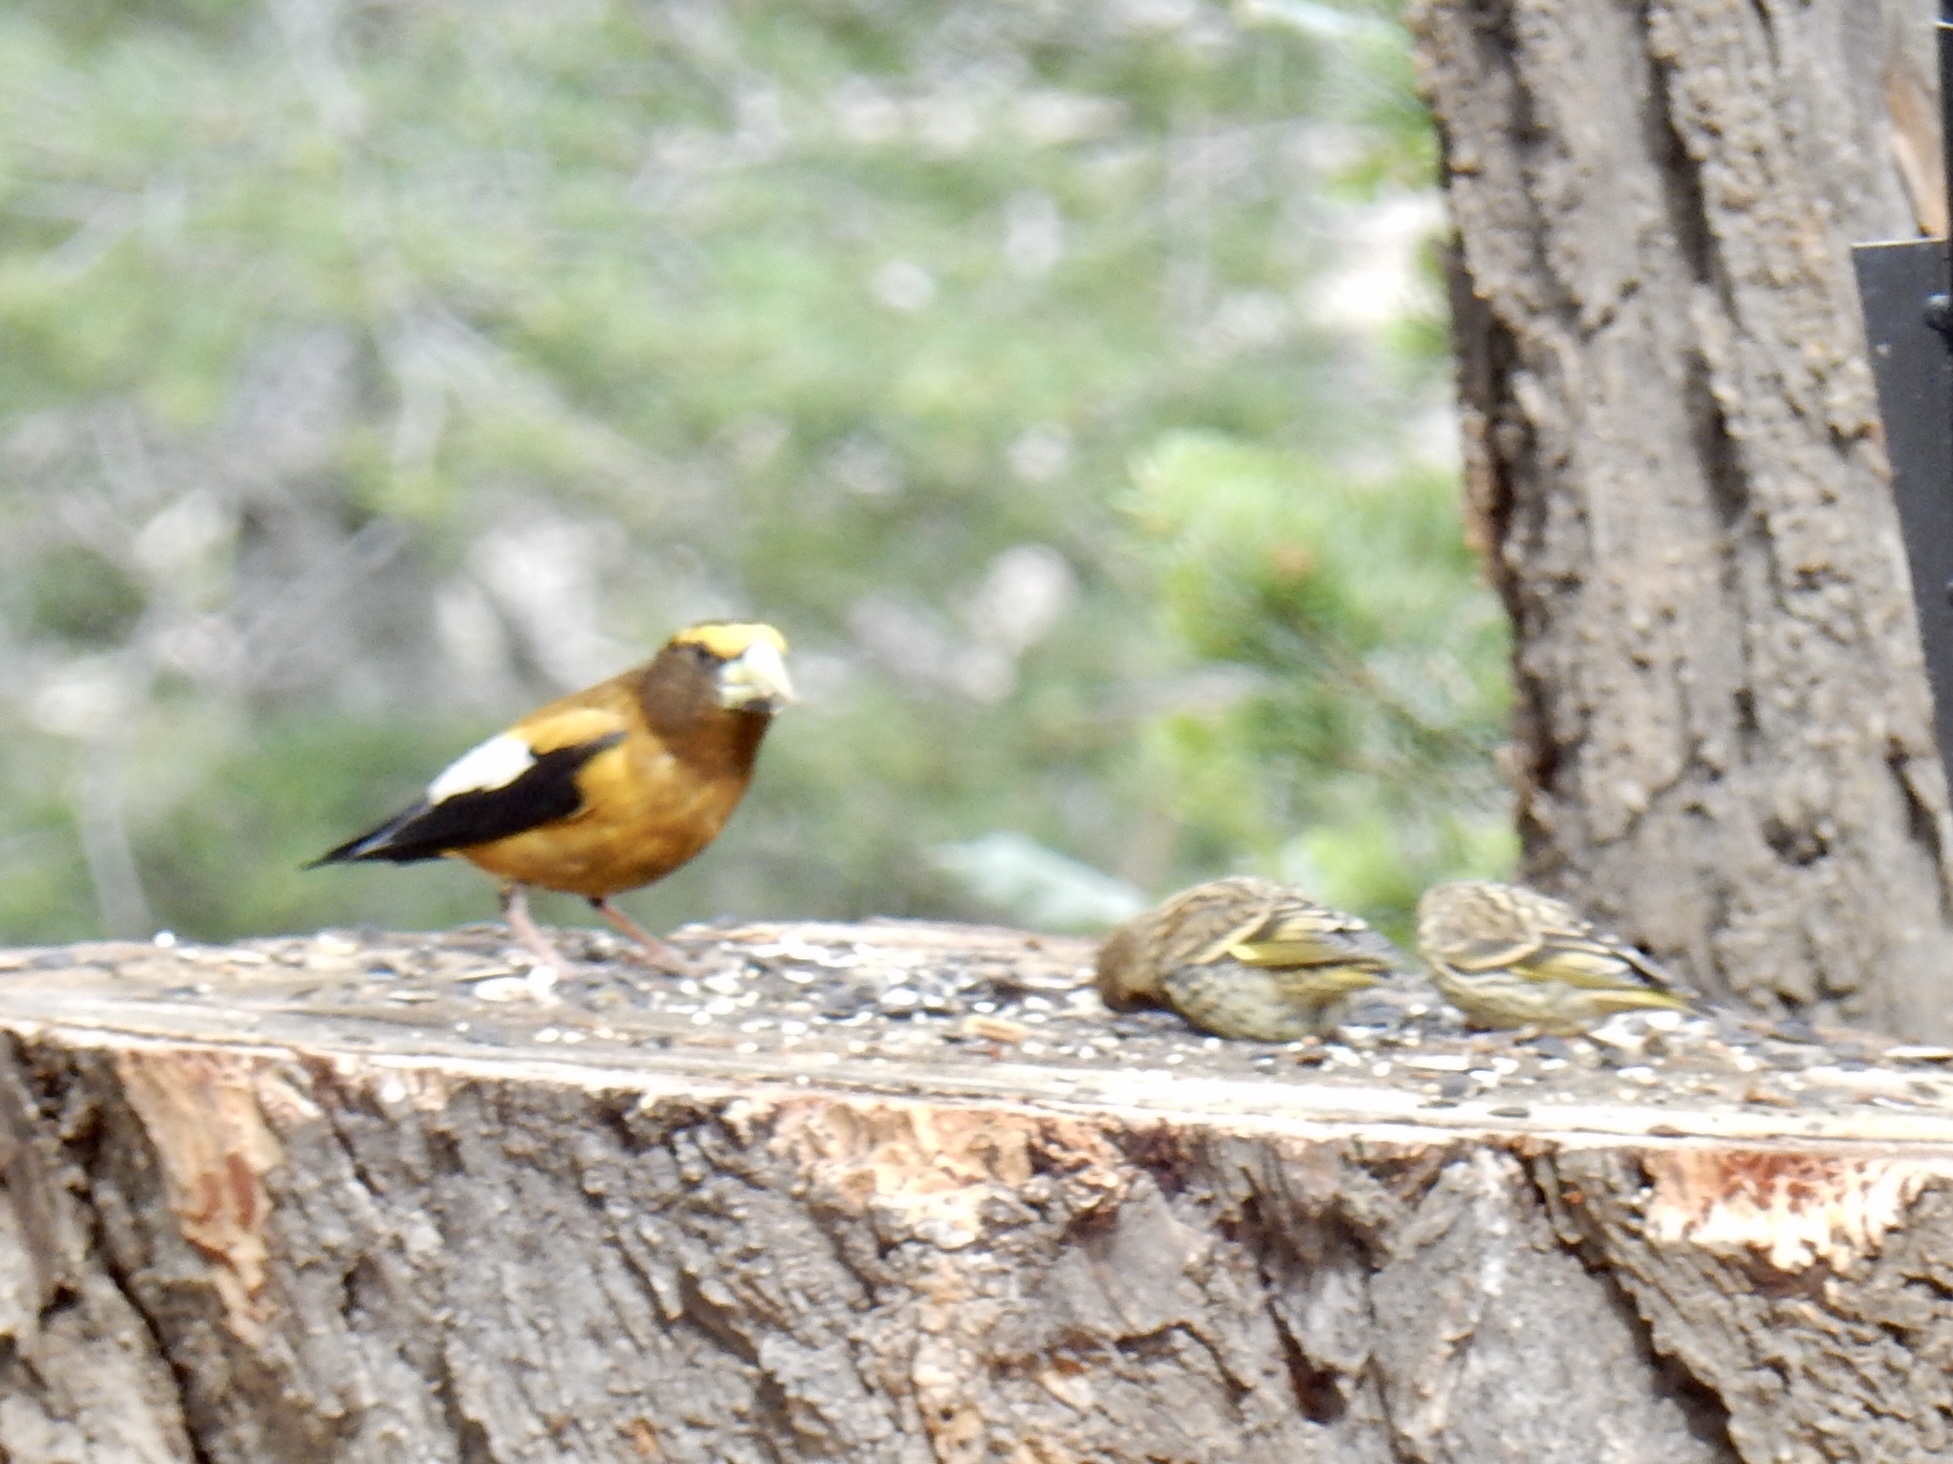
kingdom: Animalia
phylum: Chordata
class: Aves
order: Passeriformes
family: Fringillidae
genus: Spinus
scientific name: Spinus pinus
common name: Pine siskin
